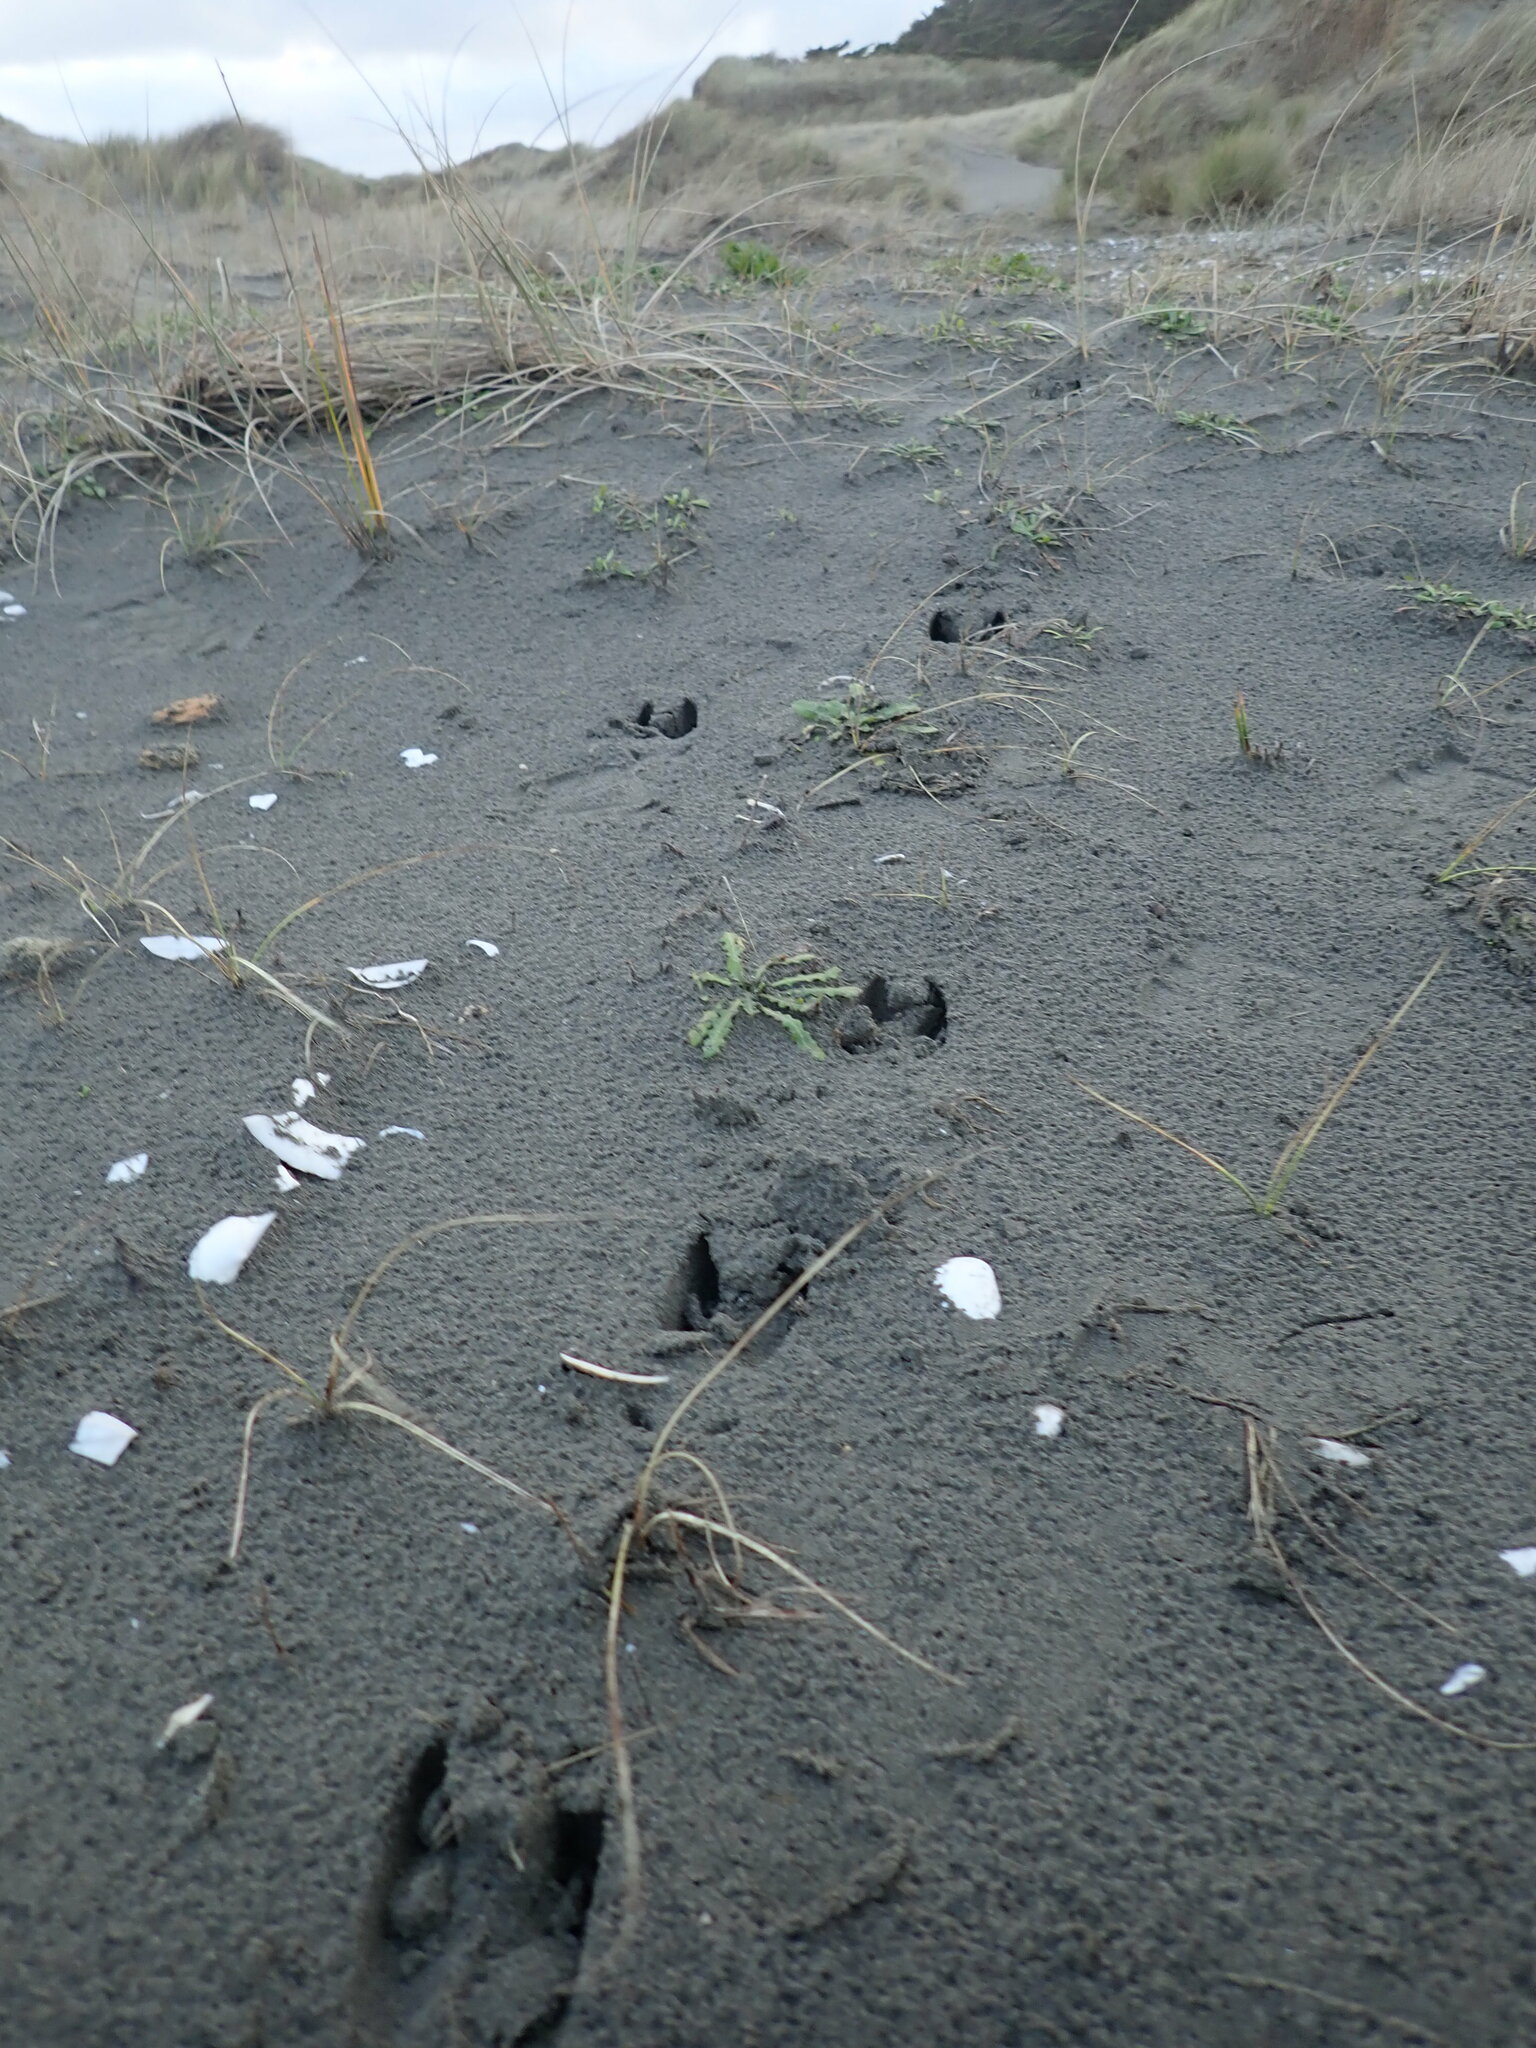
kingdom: Animalia
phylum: Chordata
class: Mammalia
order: Artiodactyla
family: Cervidae
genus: Rusa
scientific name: Rusa unicolor
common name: Sambar
